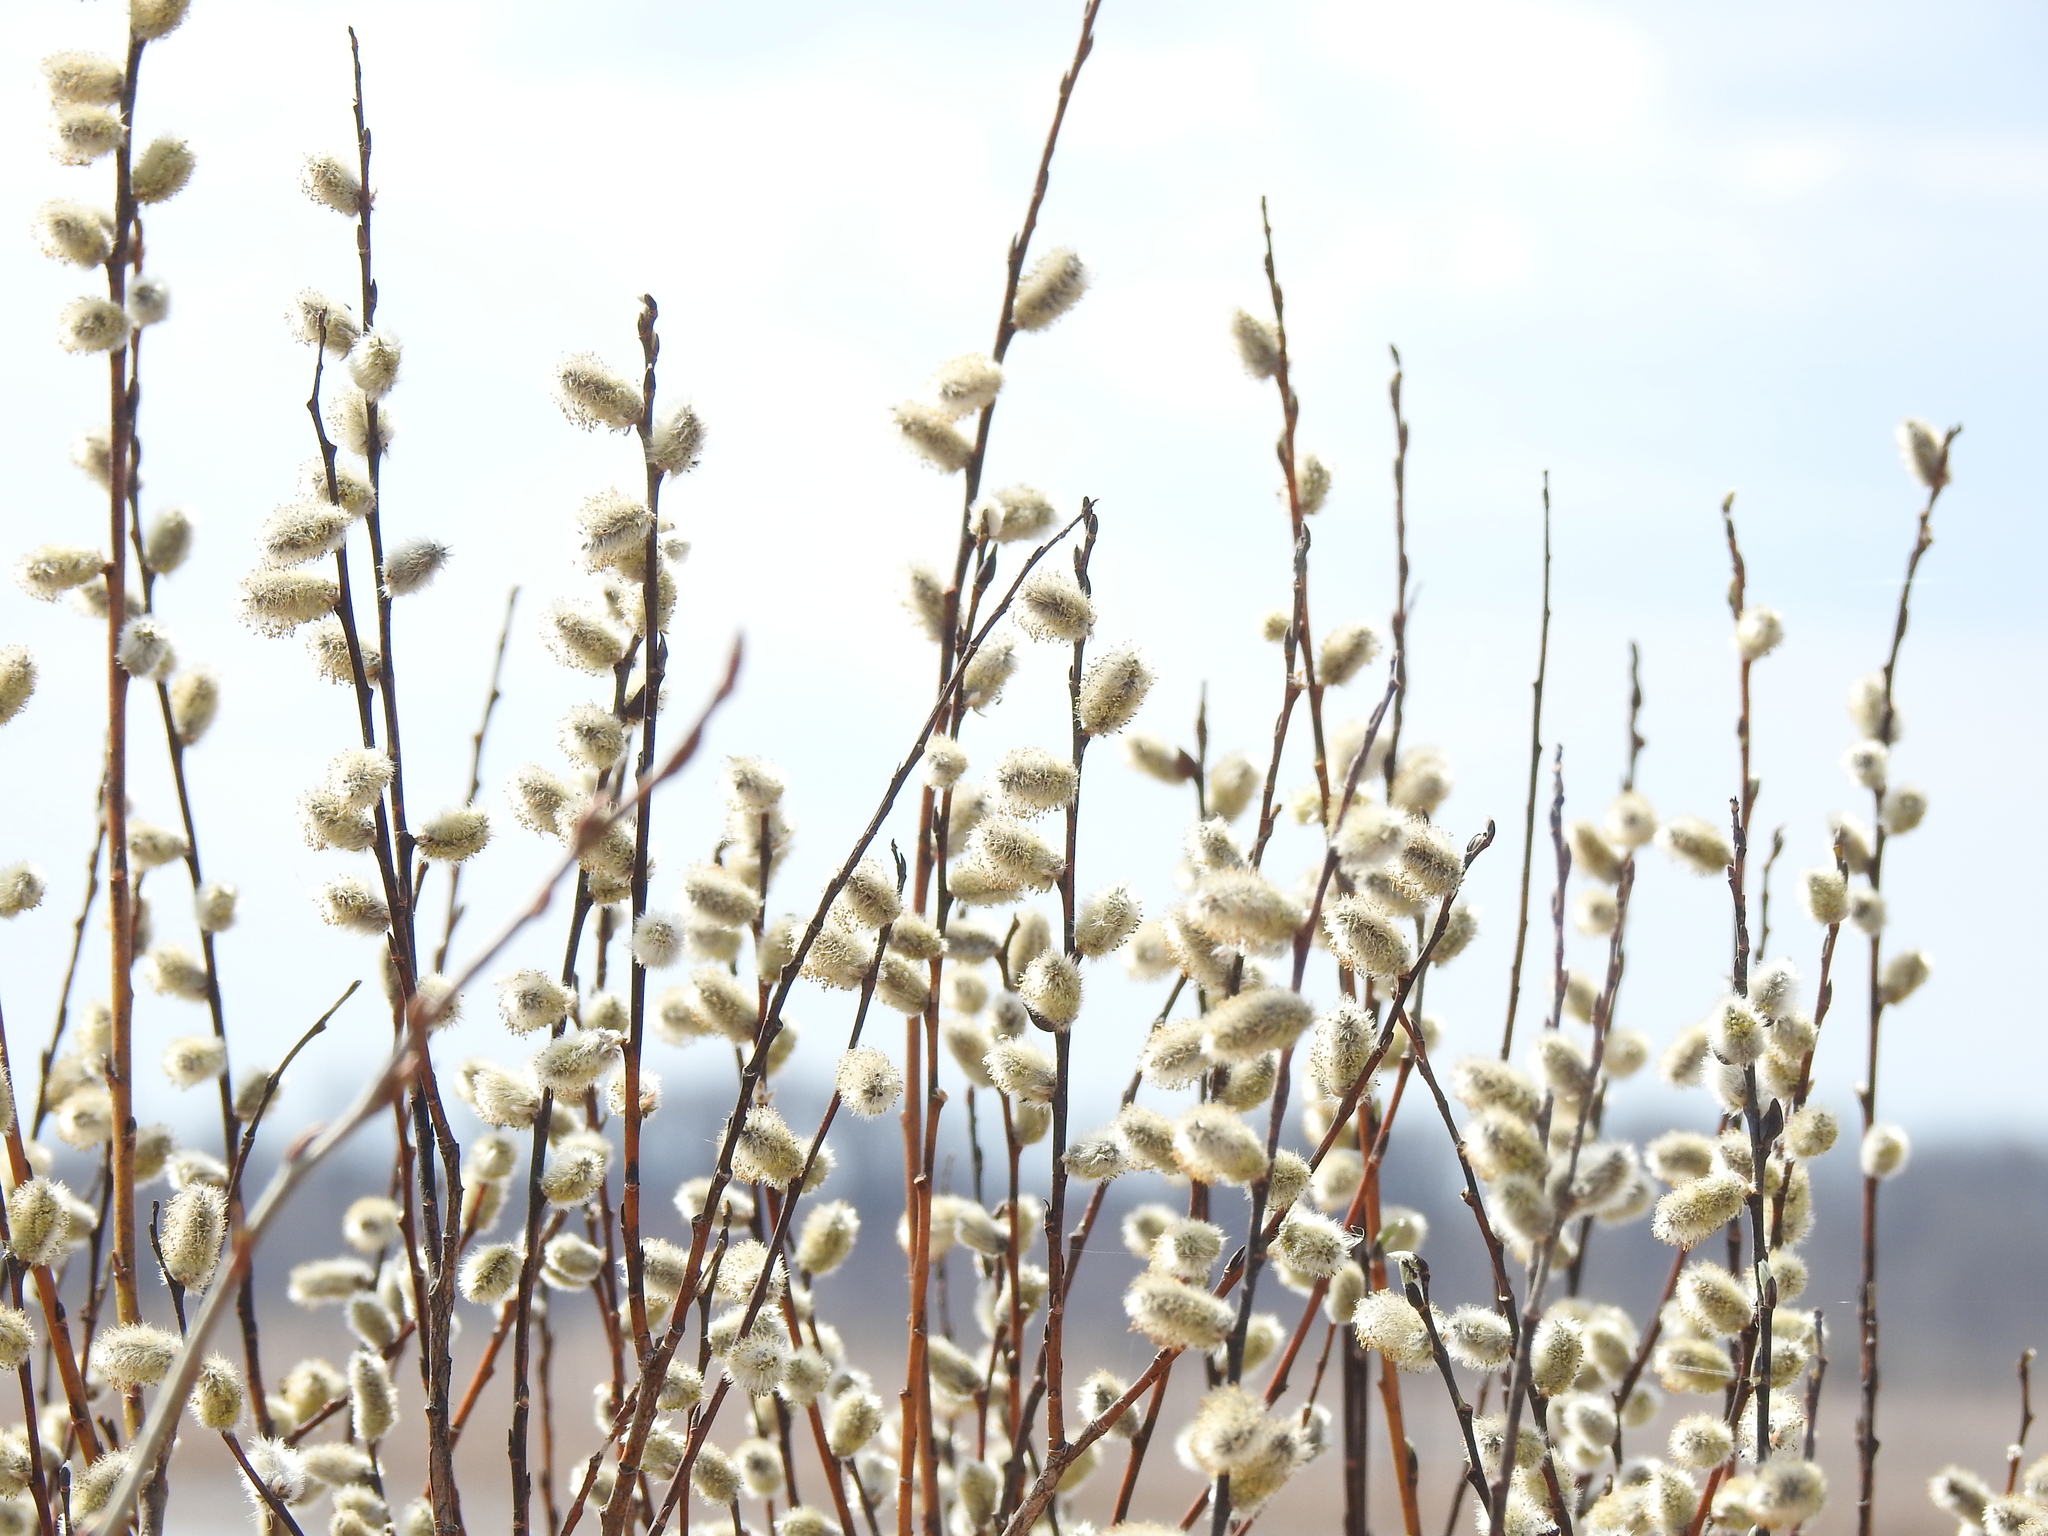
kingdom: Plantae
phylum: Tracheophyta
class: Magnoliopsida
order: Malpighiales
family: Salicaceae
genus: Salix
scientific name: Salix discolor
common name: Glaucous willow
